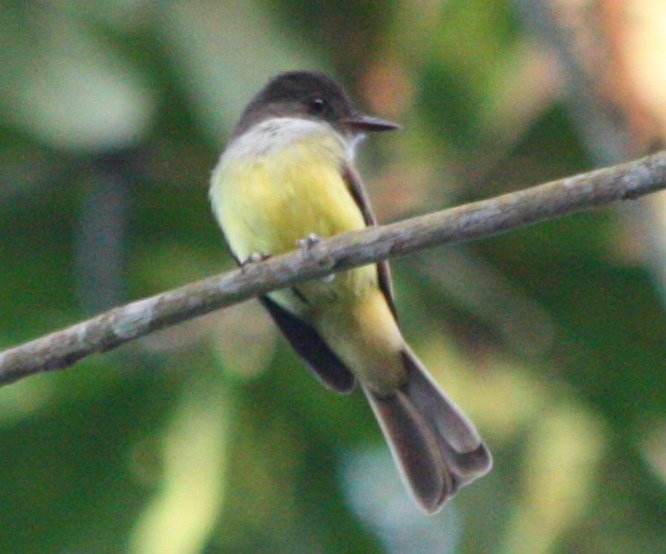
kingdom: Animalia
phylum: Chordata
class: Aves
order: Passeriformes
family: Tyrannidae
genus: Myiarchus
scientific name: Myiarchus tuberculifer
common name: Dusky-capped flycatcher
